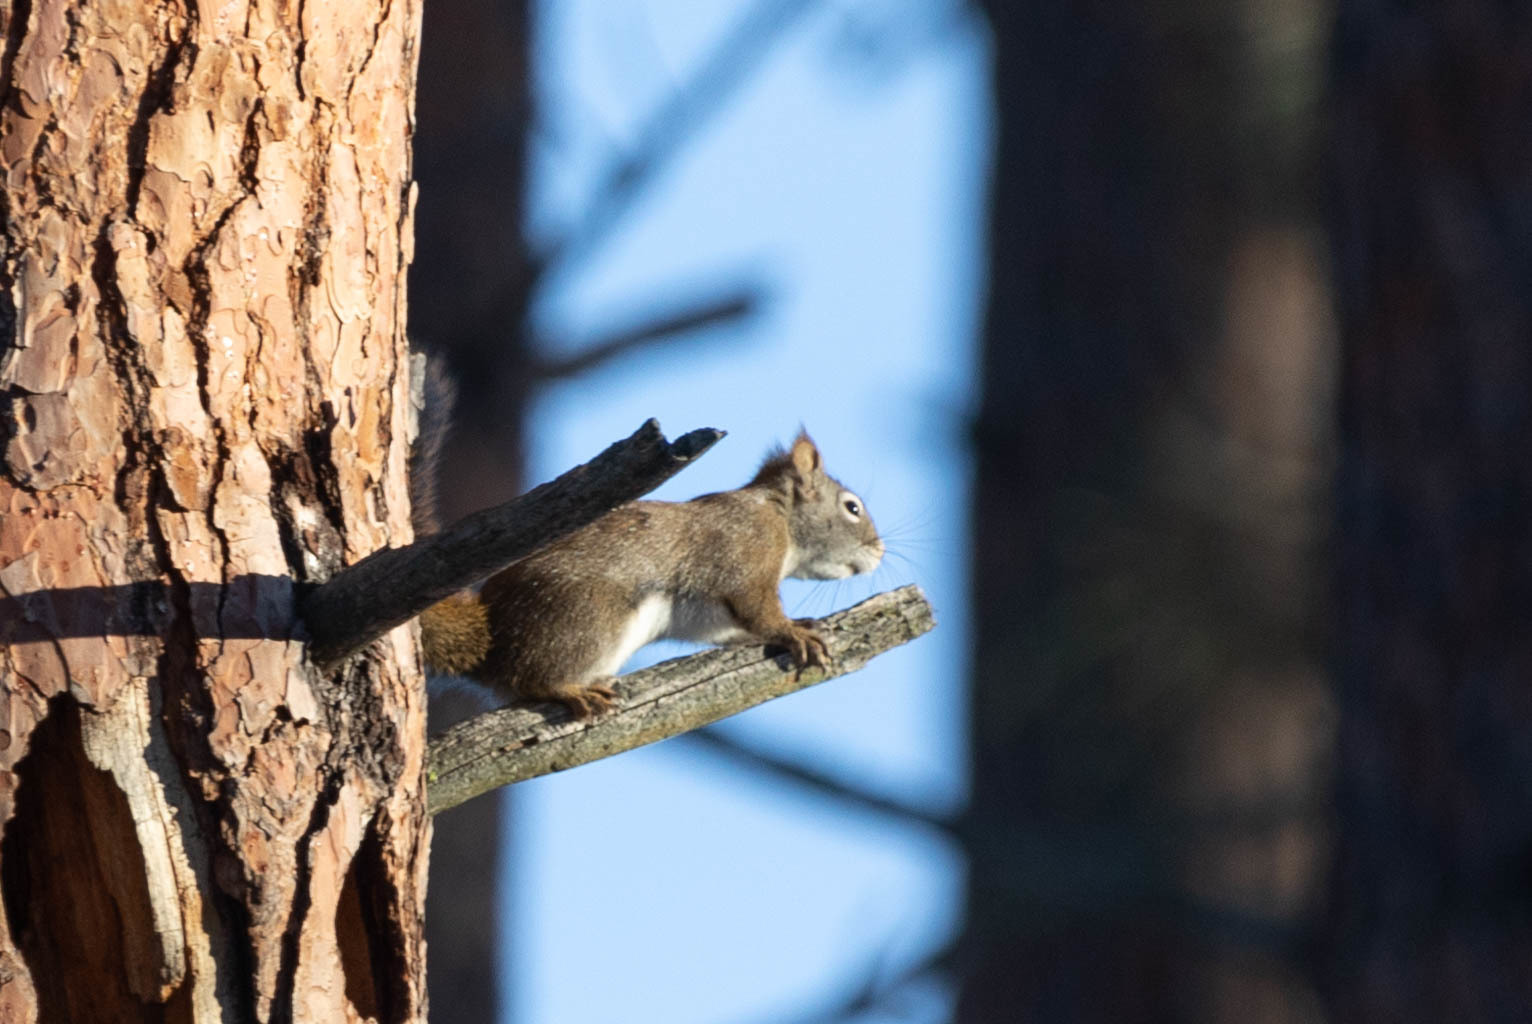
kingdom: Animalia
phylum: Chordata
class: Mammalia
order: Rodentia
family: Sciuridae
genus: Tamiasciurus
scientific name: Tamiasciurus hudsonicus
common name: Red squirrel
